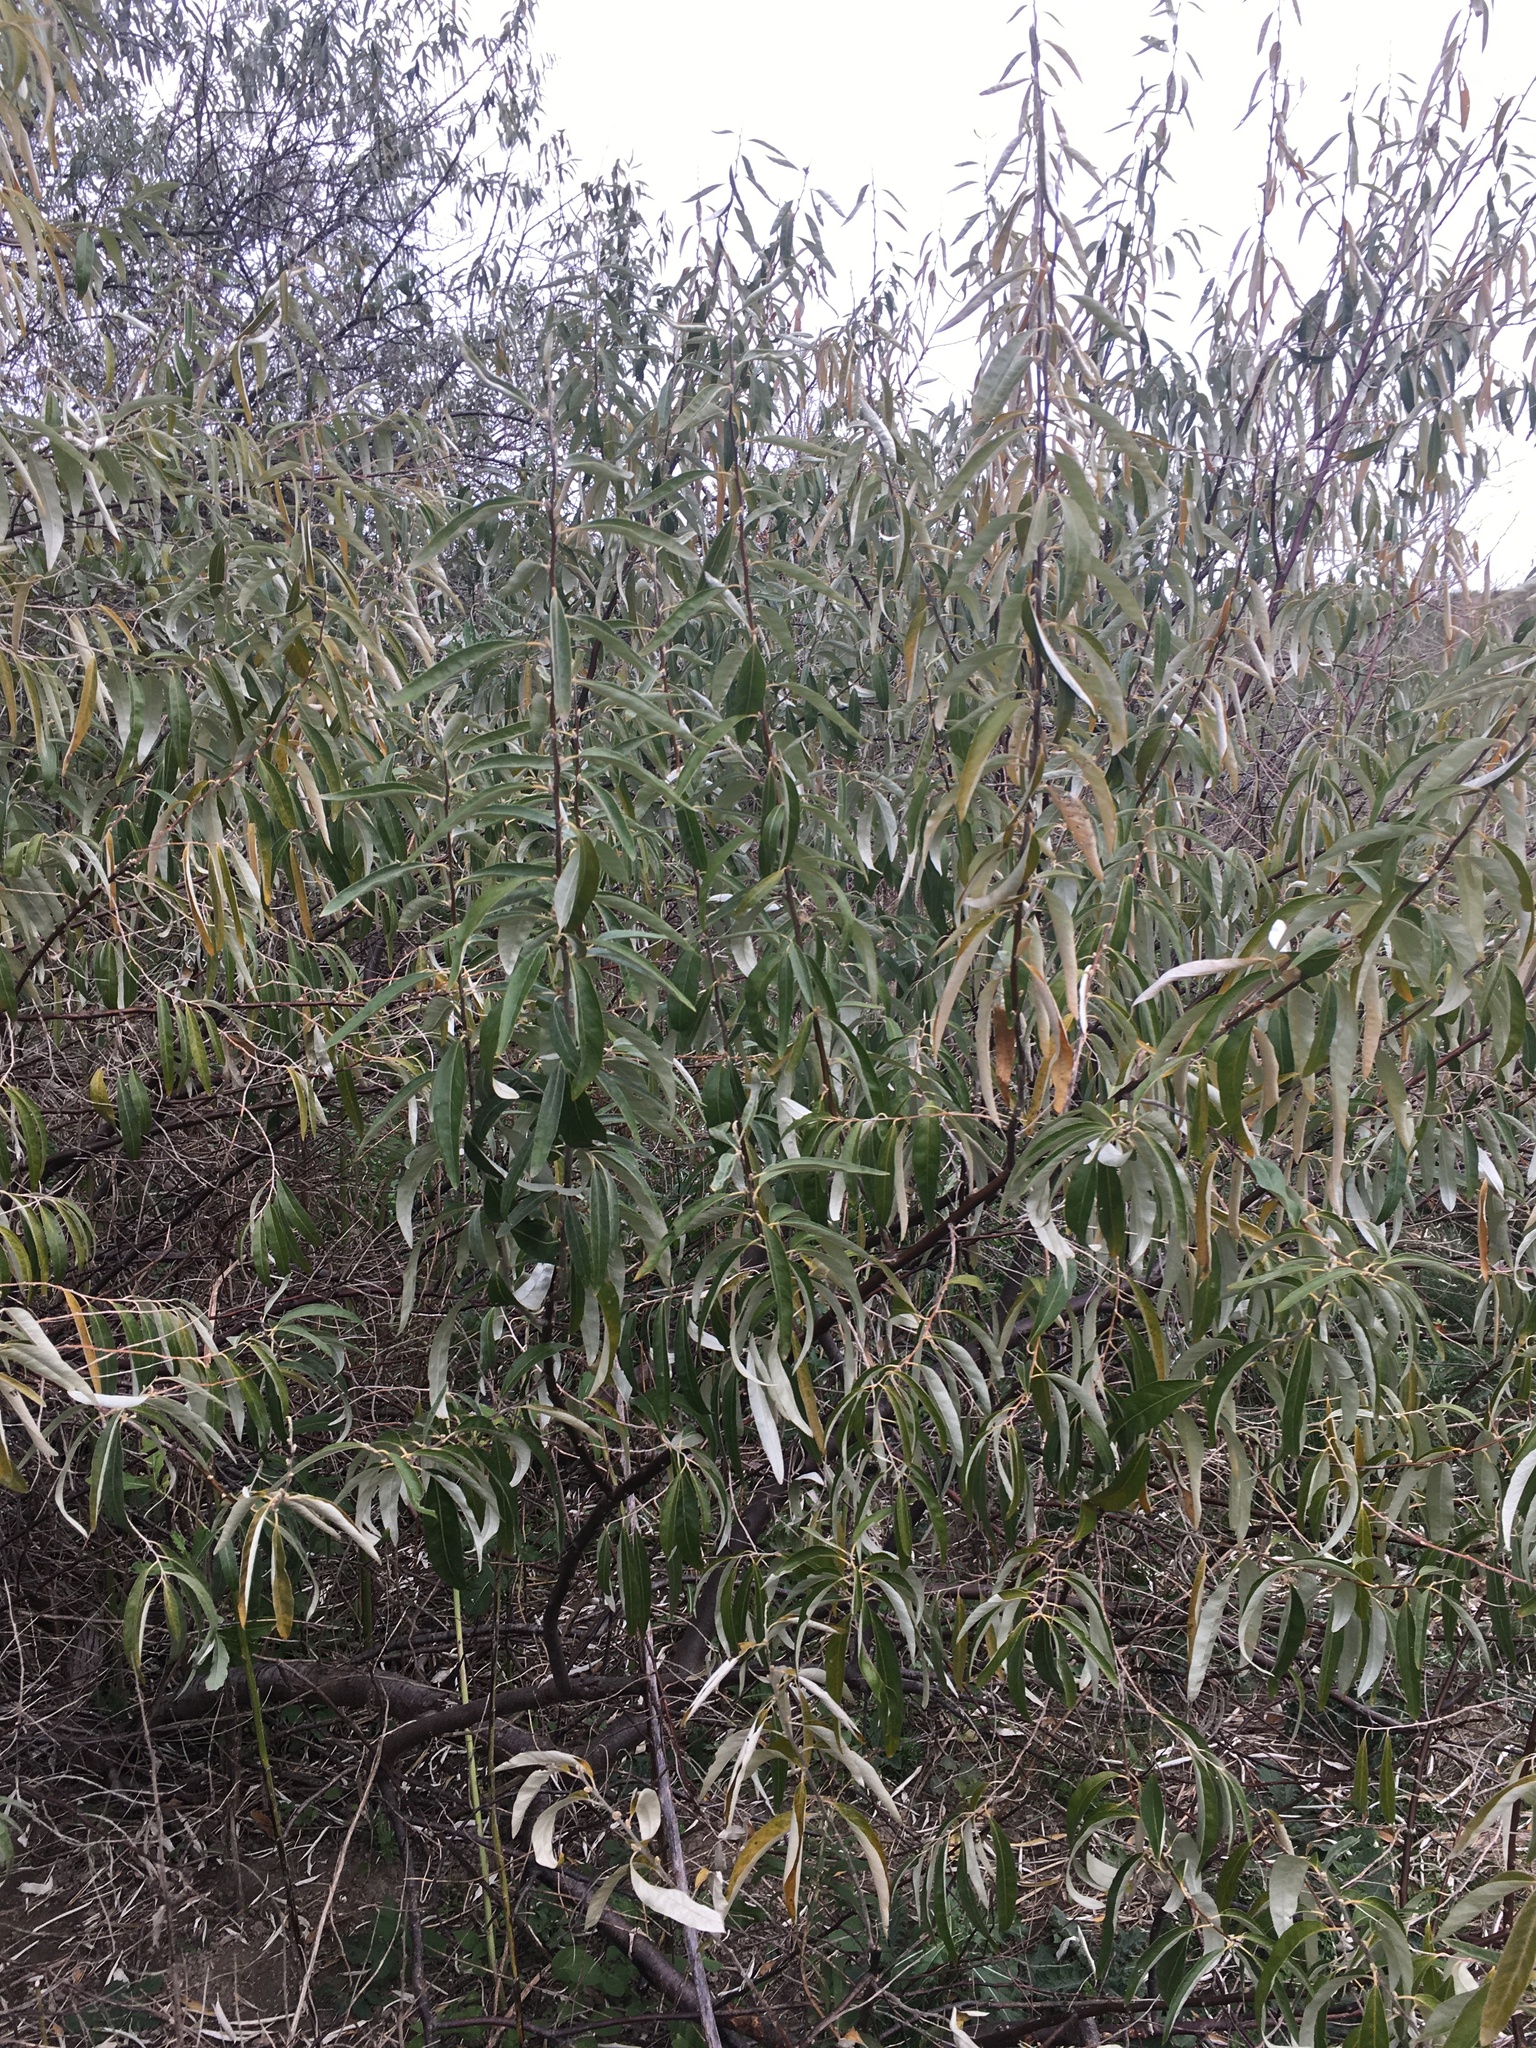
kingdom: Plantae
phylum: Tracheophyta
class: Magnoliopsida
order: Rosales
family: Elaeagnaceae
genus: Elaeagnus
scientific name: Elaeagnus angustifolia
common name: Russian olive
